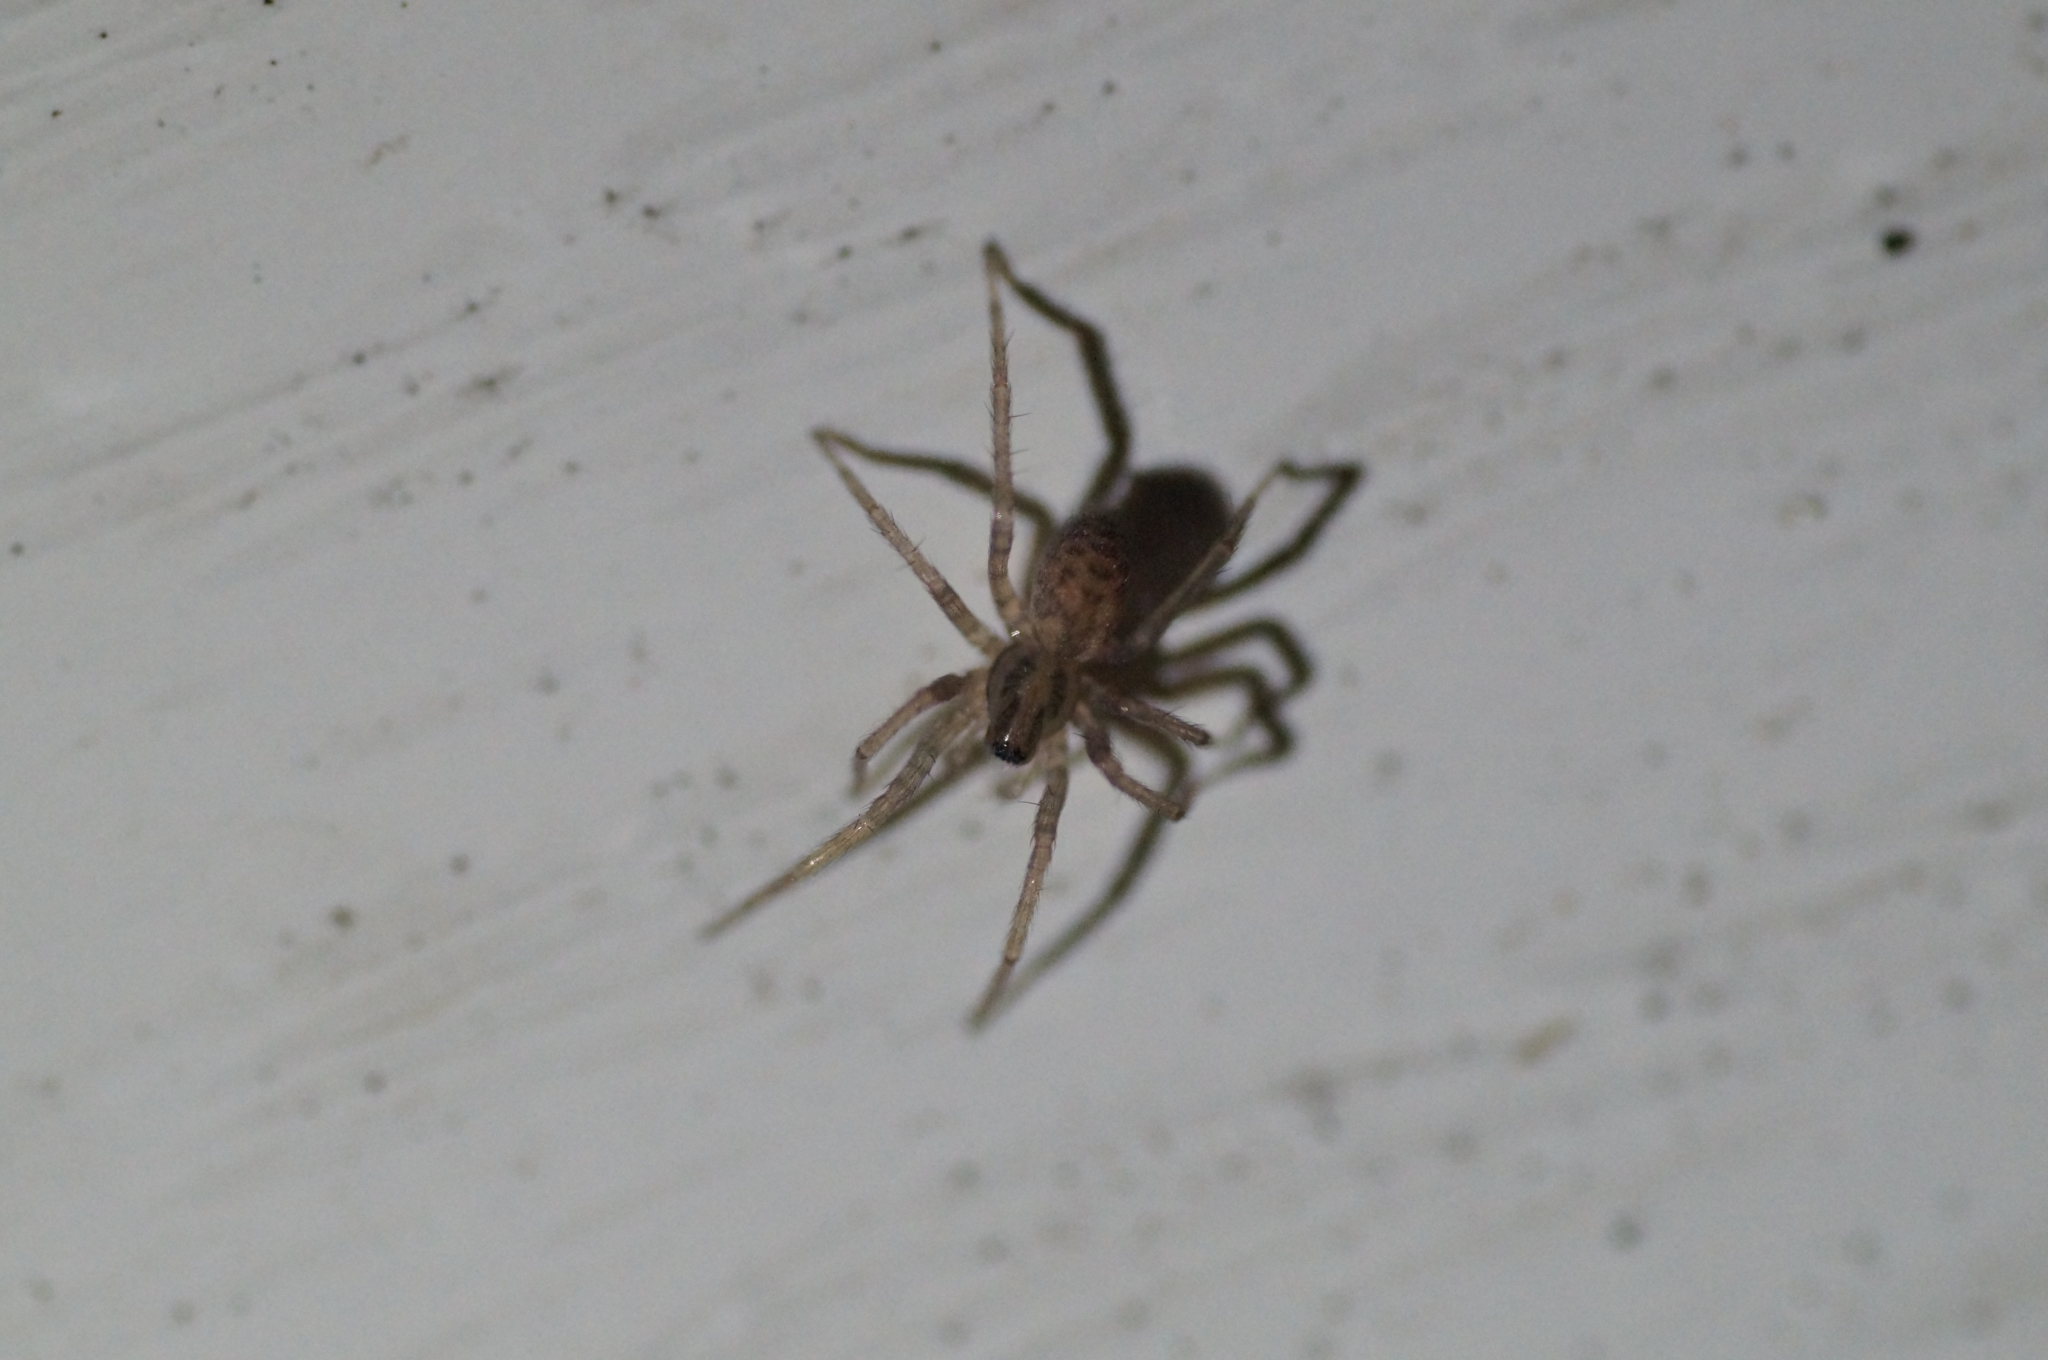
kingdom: Animalia
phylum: Arthropoda
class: Arachnida
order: Araneae
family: Agelenidae
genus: Tegenaria
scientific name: Tegenaria domestica
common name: Barn funnel weaver
